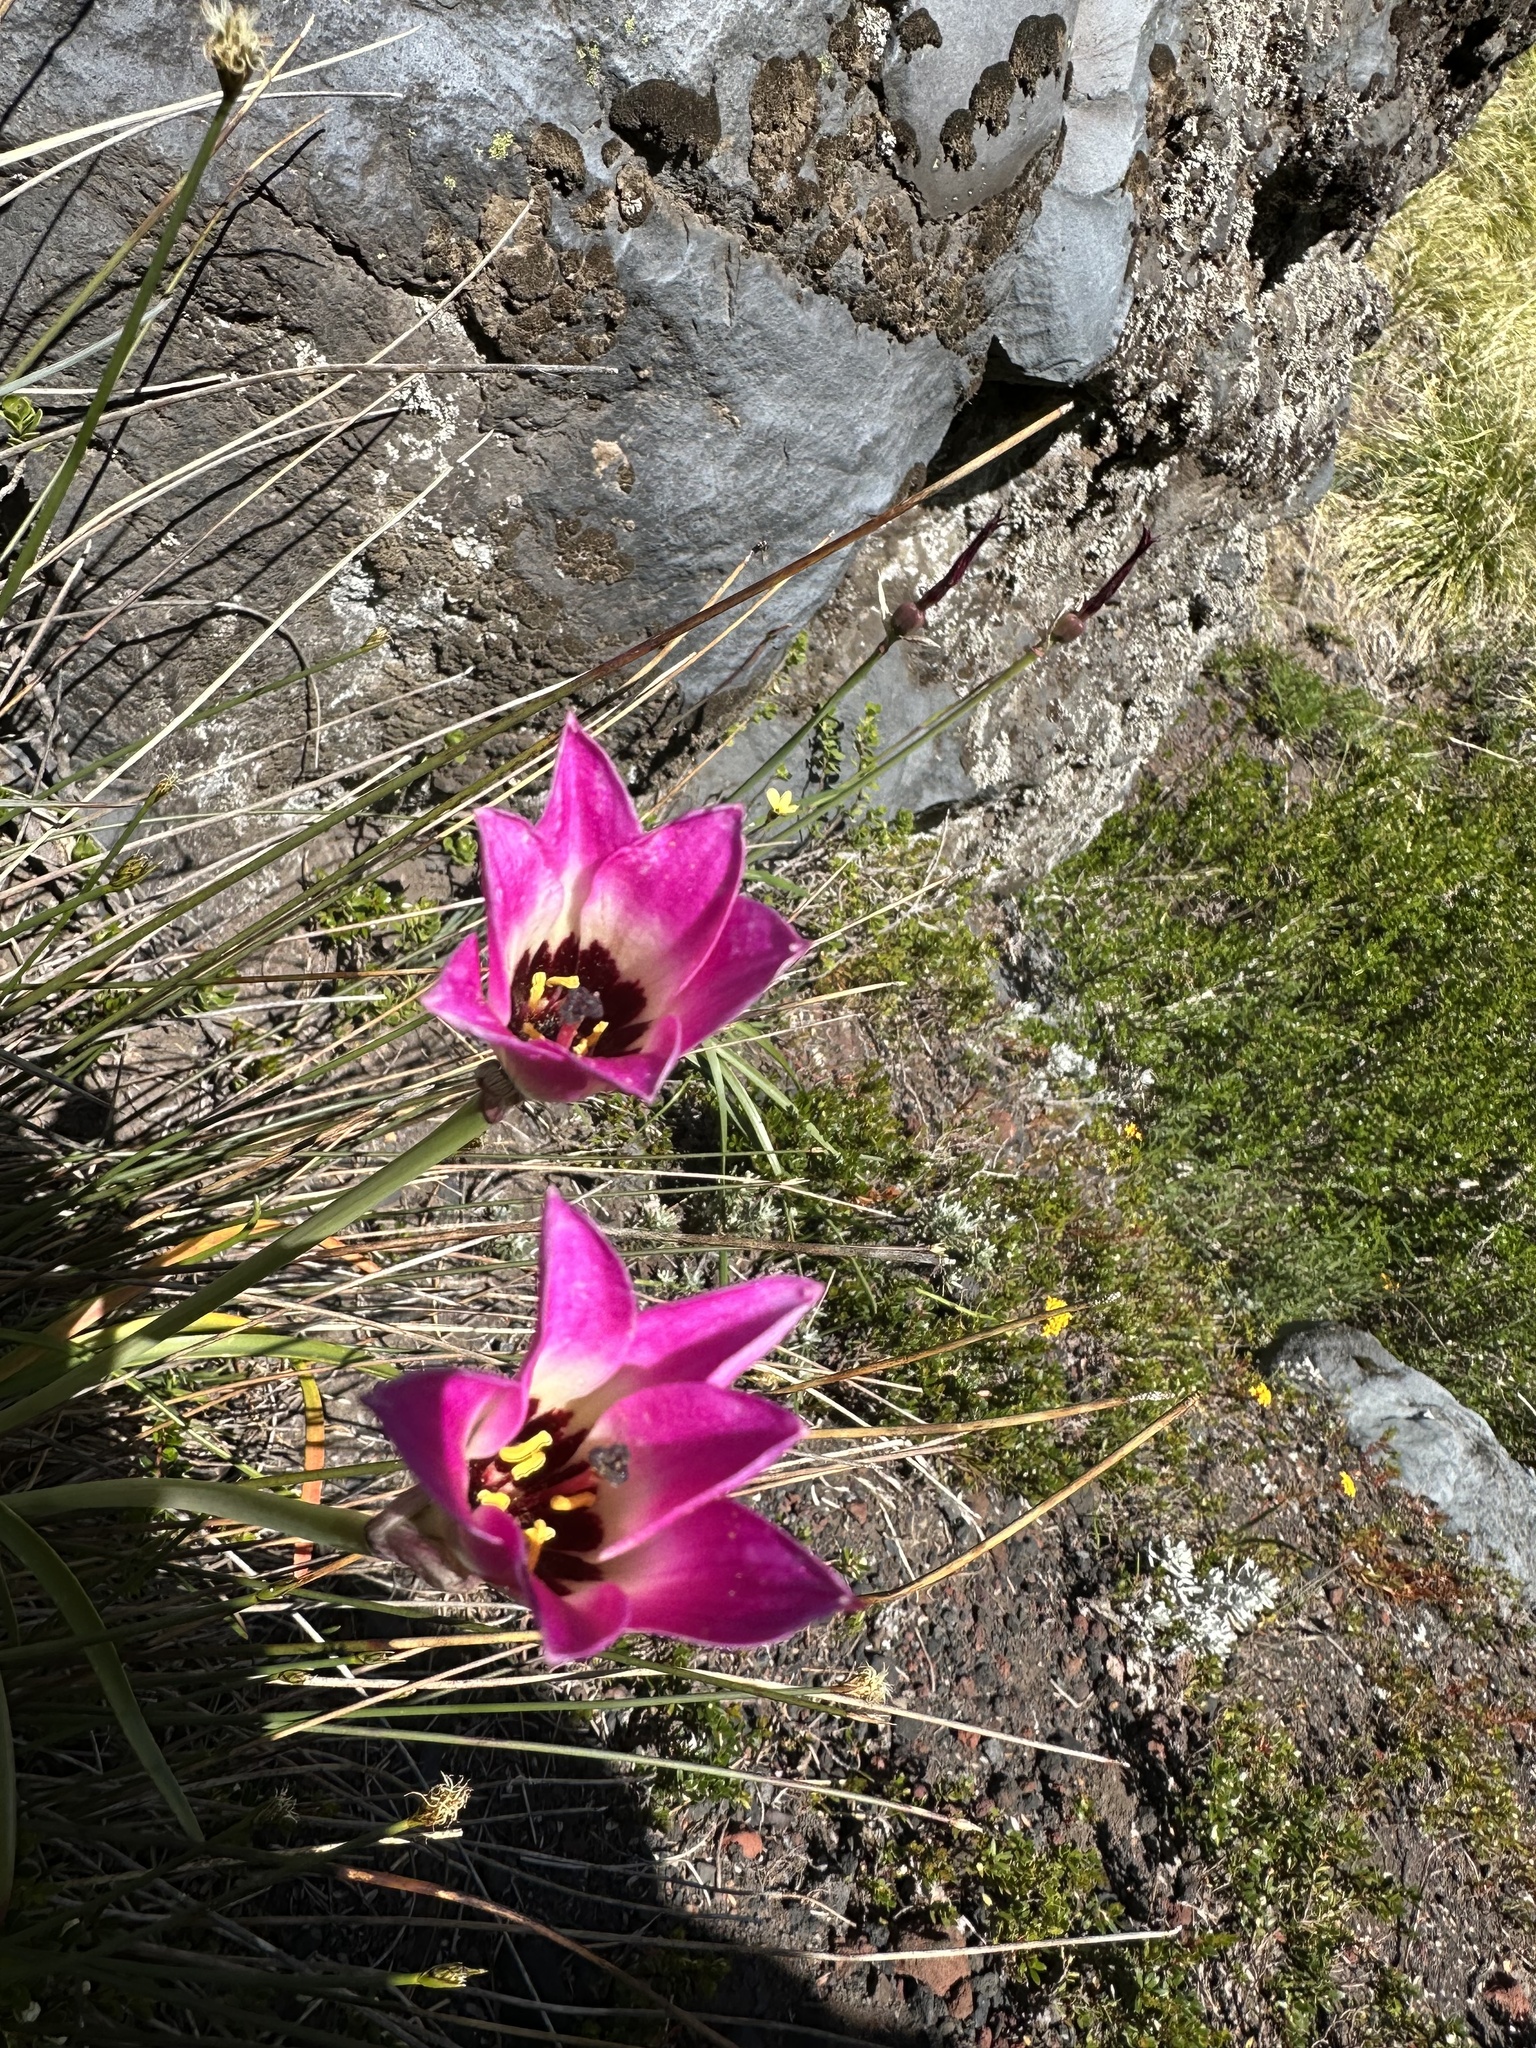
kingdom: Plantae
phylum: Tracheophyta
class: Liliopsida
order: Asparagales
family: Amaryllidaceae
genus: Rhodolirium
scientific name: Rhodolirium andicola
